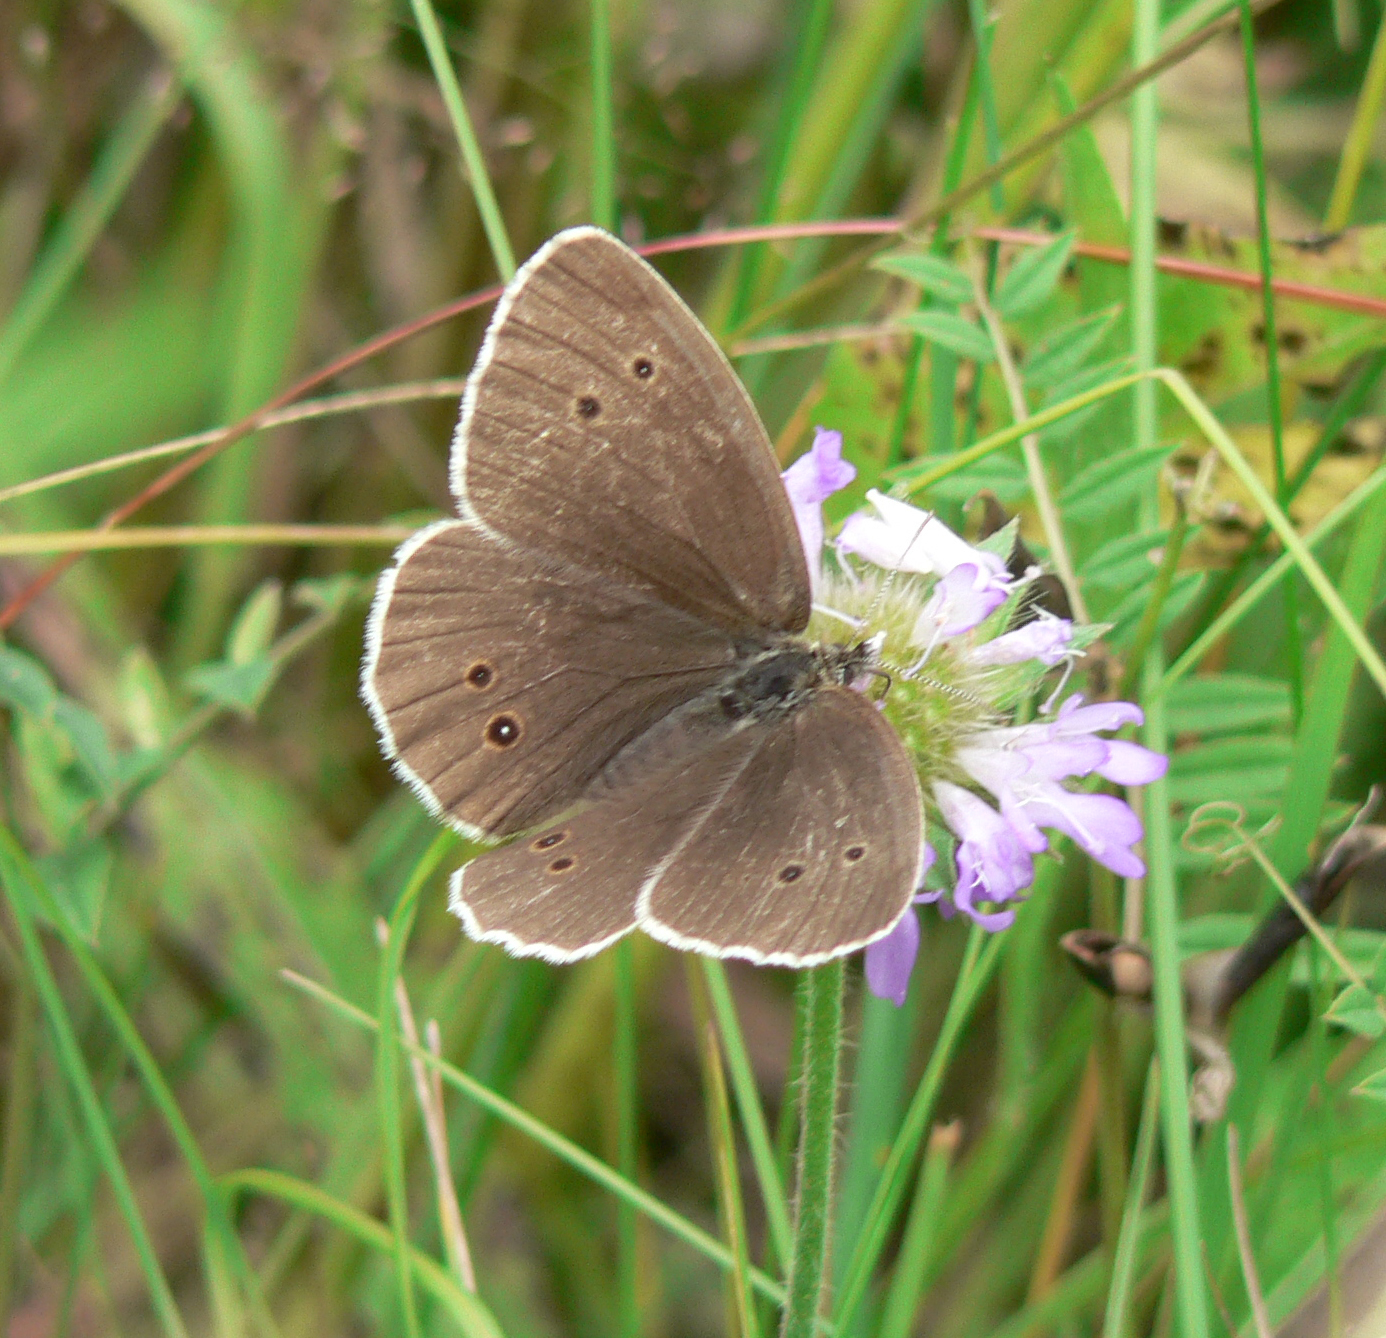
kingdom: Animalia
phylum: Arthropoda
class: Insecta
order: Lepidoptera
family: Nymphalidae
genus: Aphantopus
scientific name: Aphantopus hyperantus
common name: Ringlet
